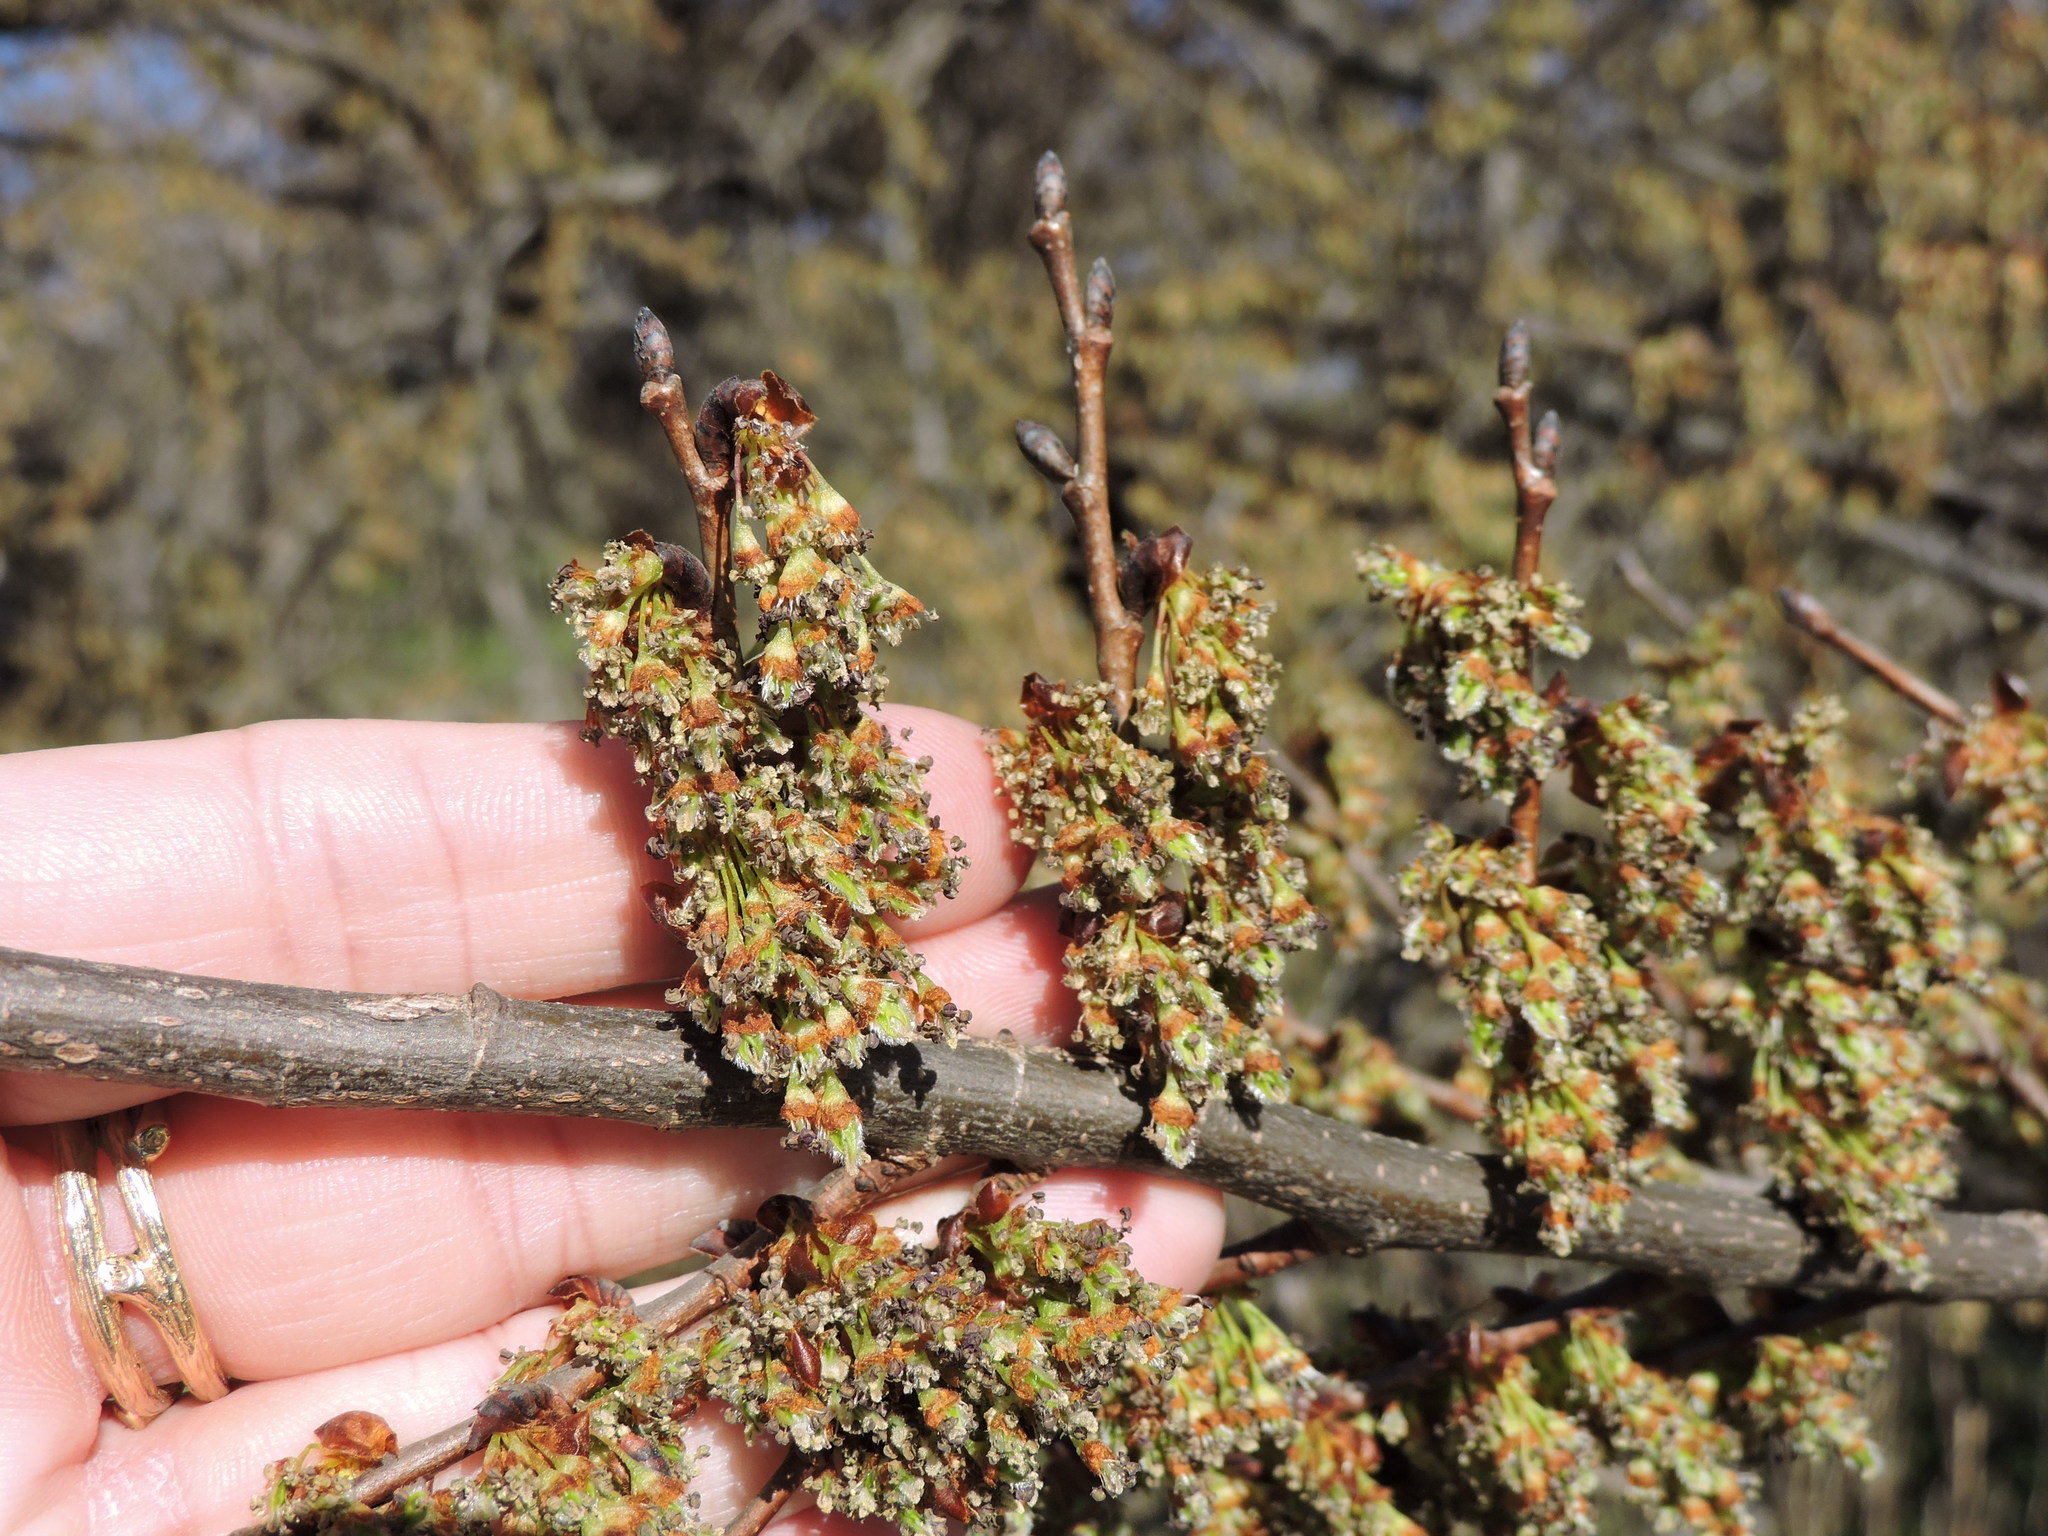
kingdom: Plantae
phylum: Tracheophyta
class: Magnoliopsida
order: Rosales
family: Ulmaceae
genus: Ulmus
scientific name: Ulmus americana
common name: American elm
